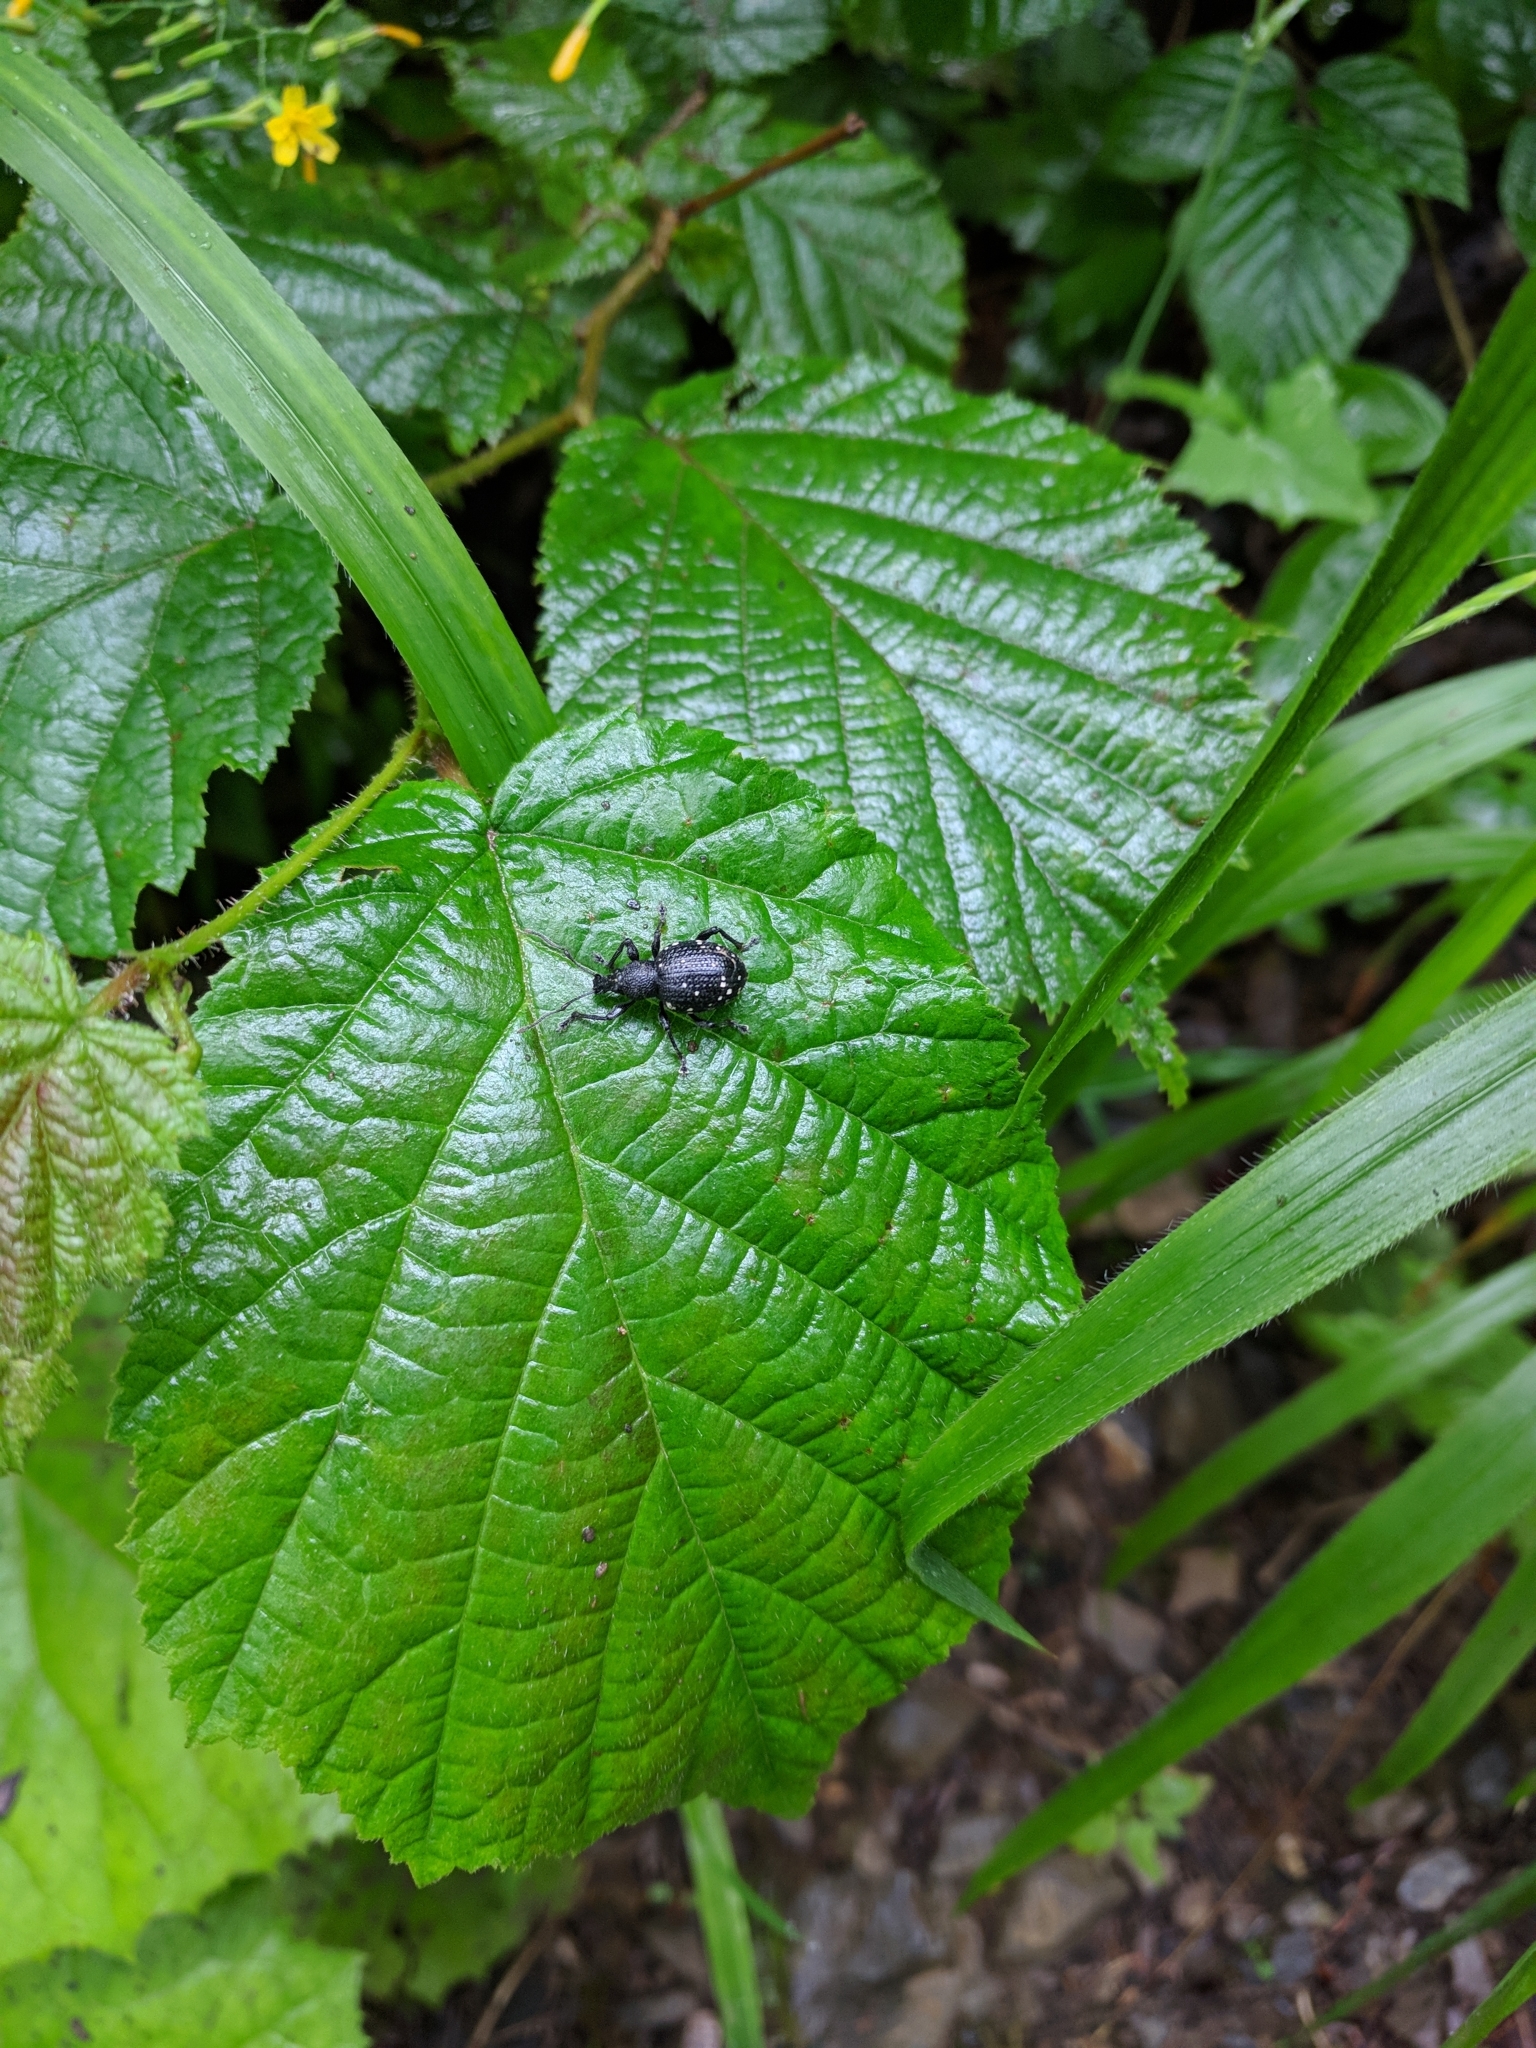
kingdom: Animalia
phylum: Arthropoda
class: Insecta
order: Coleoptera
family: Curculionidae
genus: Otiorhynchus
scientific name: Otiorhynchus gemmatus
